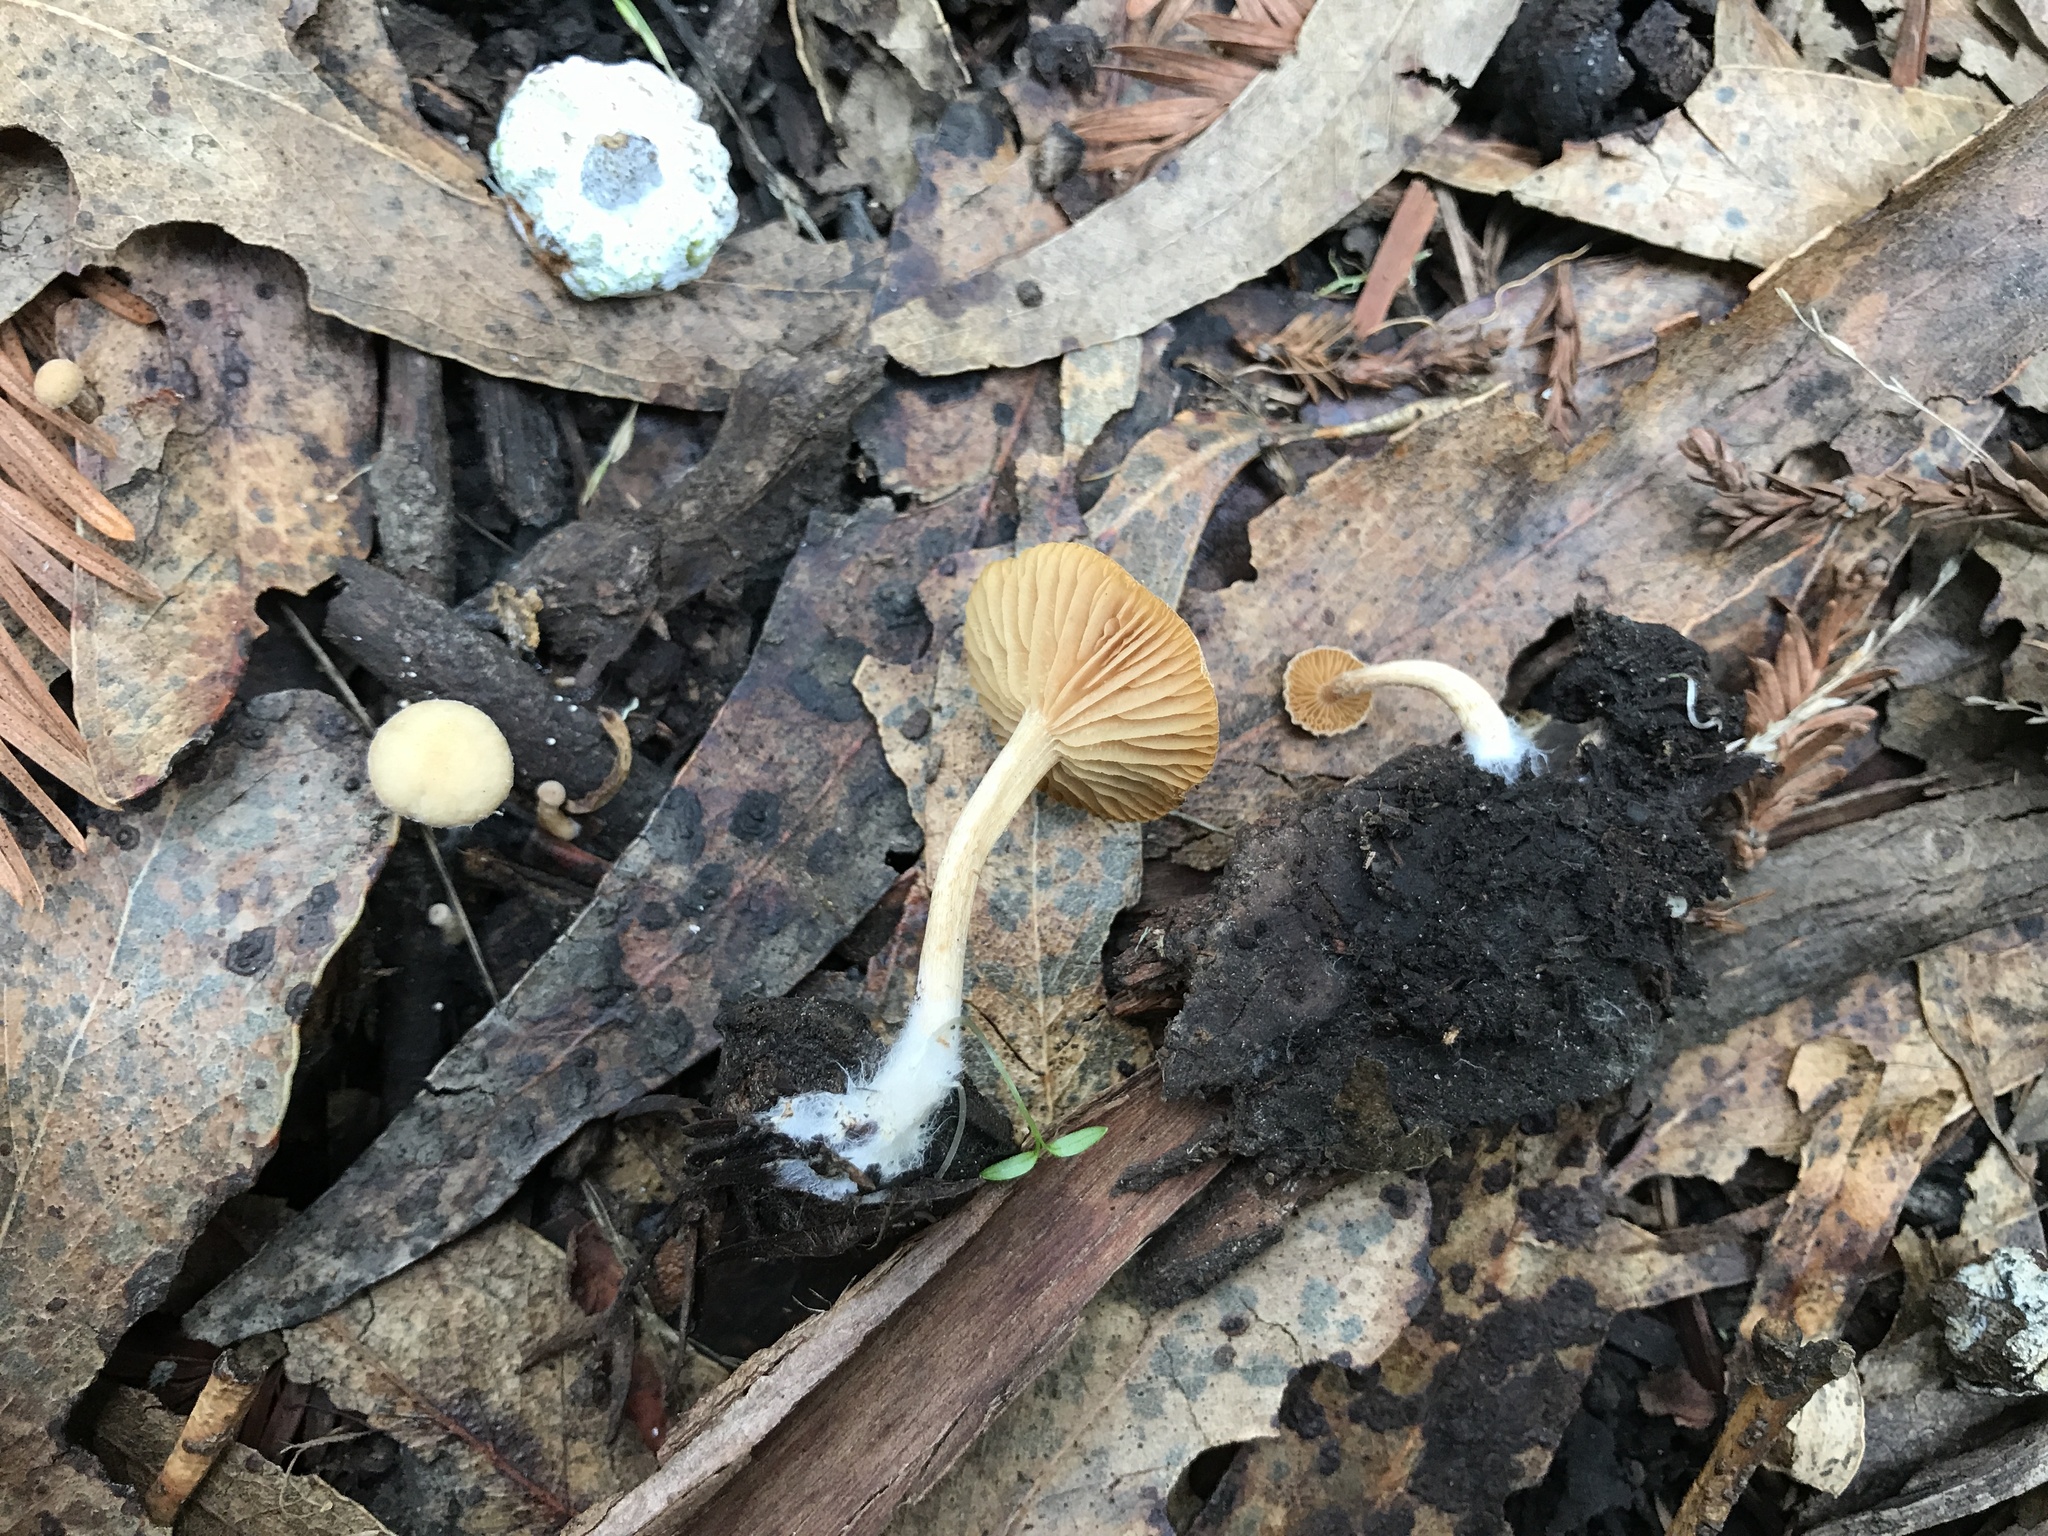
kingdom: Fungi
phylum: Basidiomycota
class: Agaricomycetes
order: Agaricales
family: Tubariaceae
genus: Tubaria
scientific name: Tubaria furfuracea
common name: Scurfy twiglet
